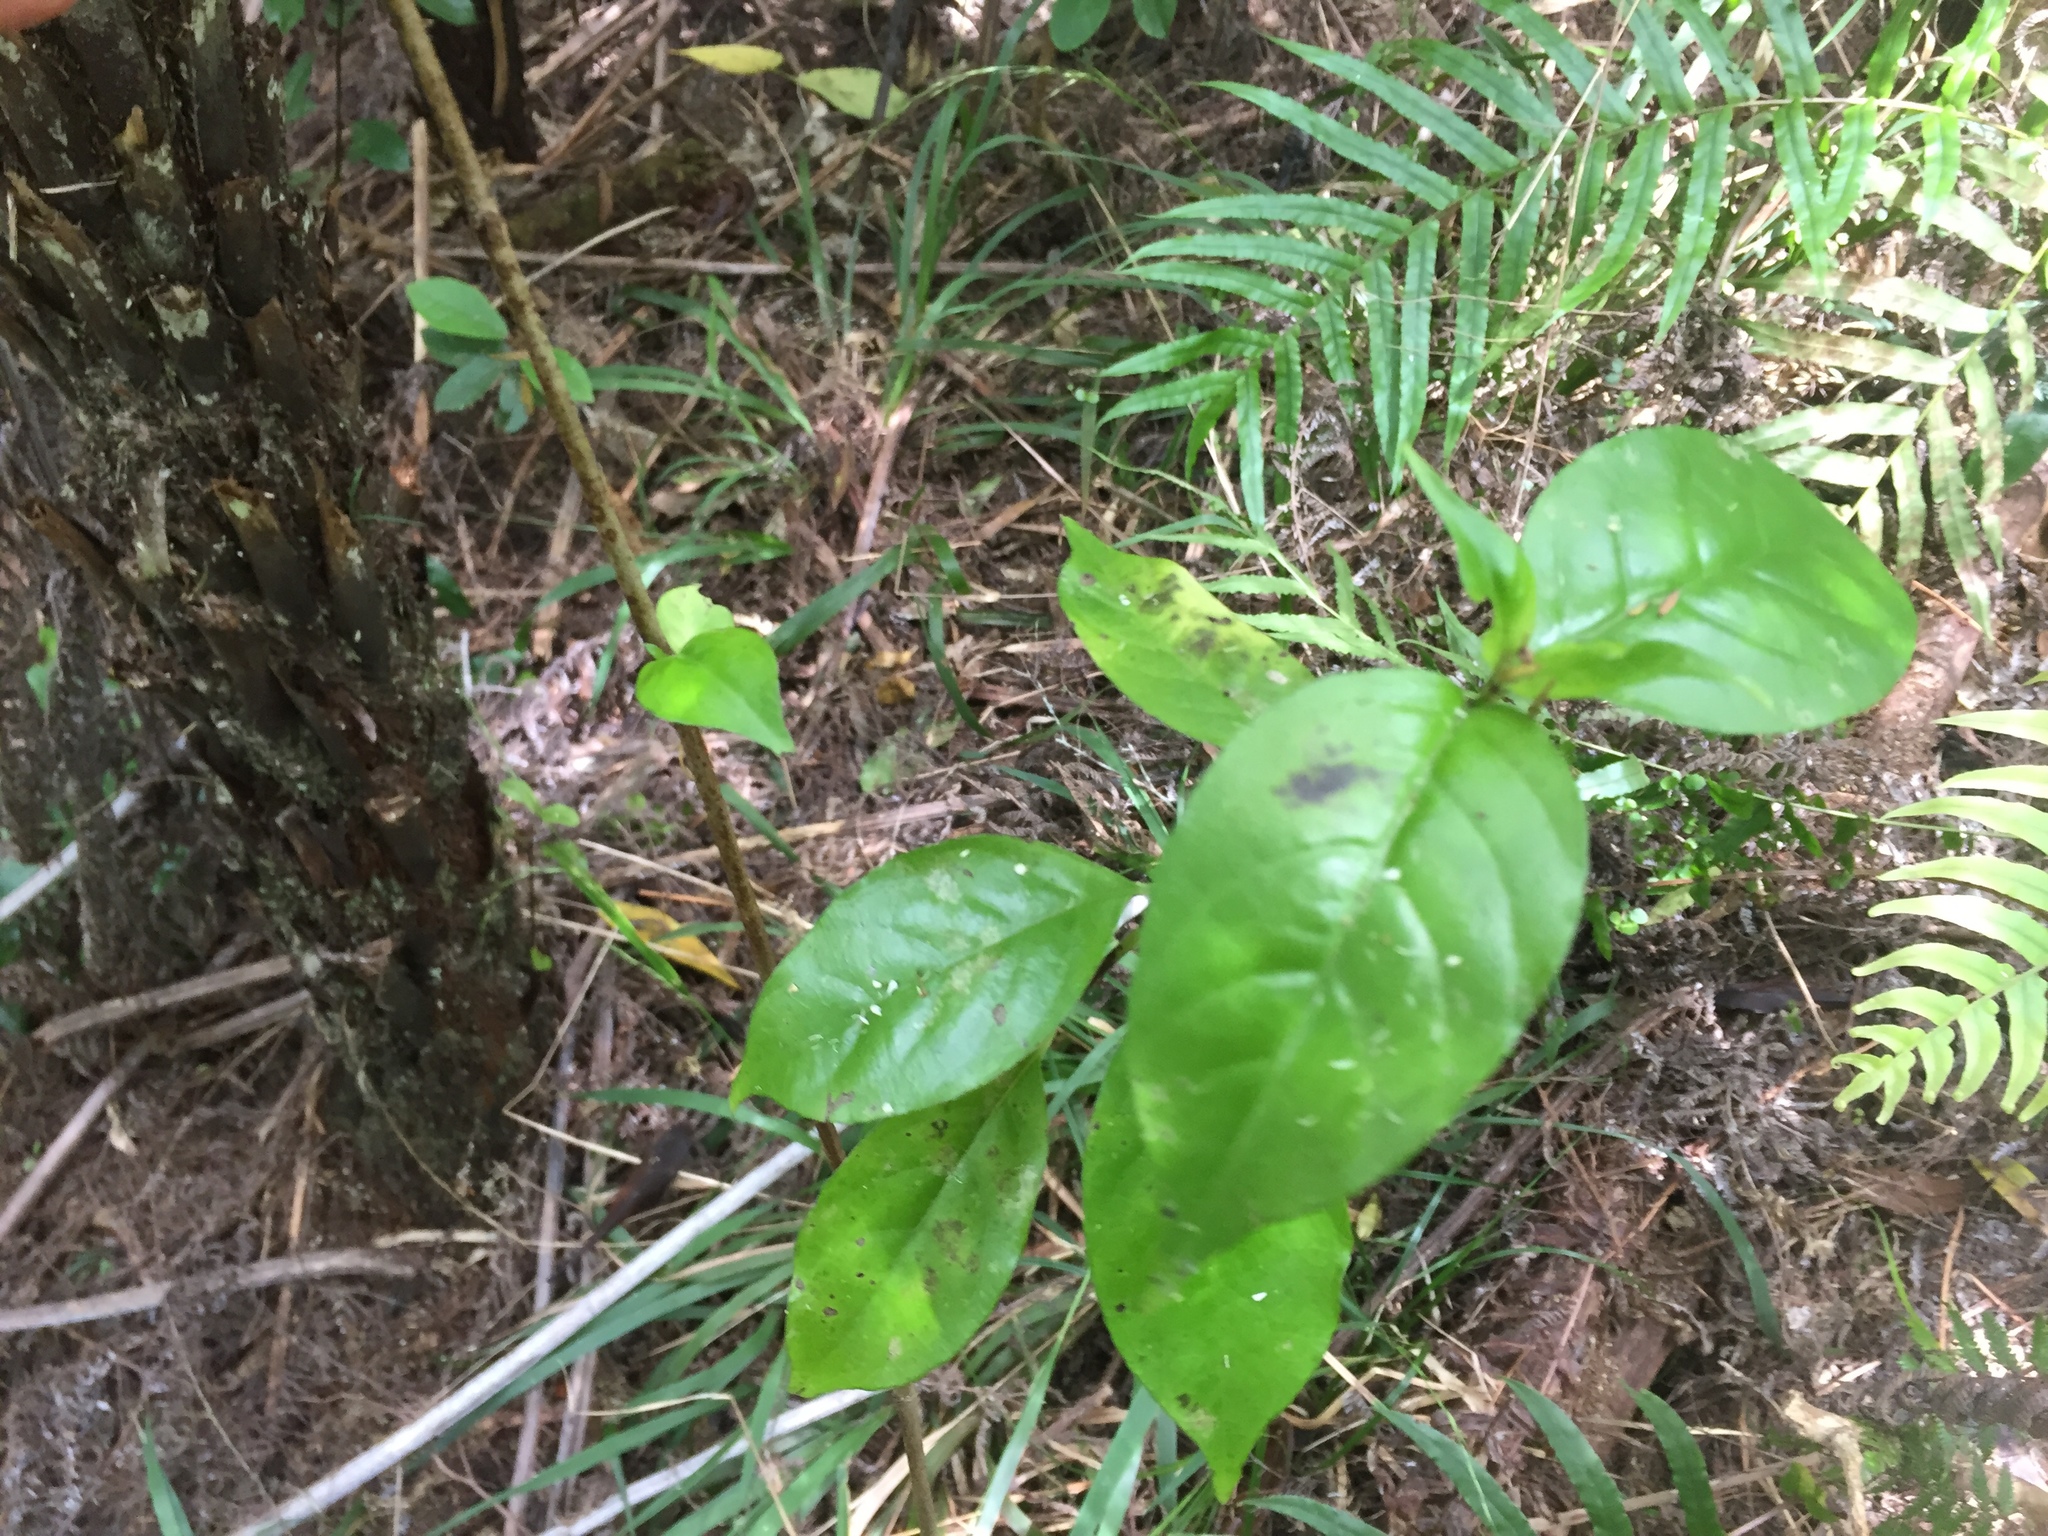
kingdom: Plantae
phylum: Tracheophyta
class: Magnoliopsida
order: Gentianales
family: Loganiaceae
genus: Geniostoma
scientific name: Geniostoma ligustrifolium
